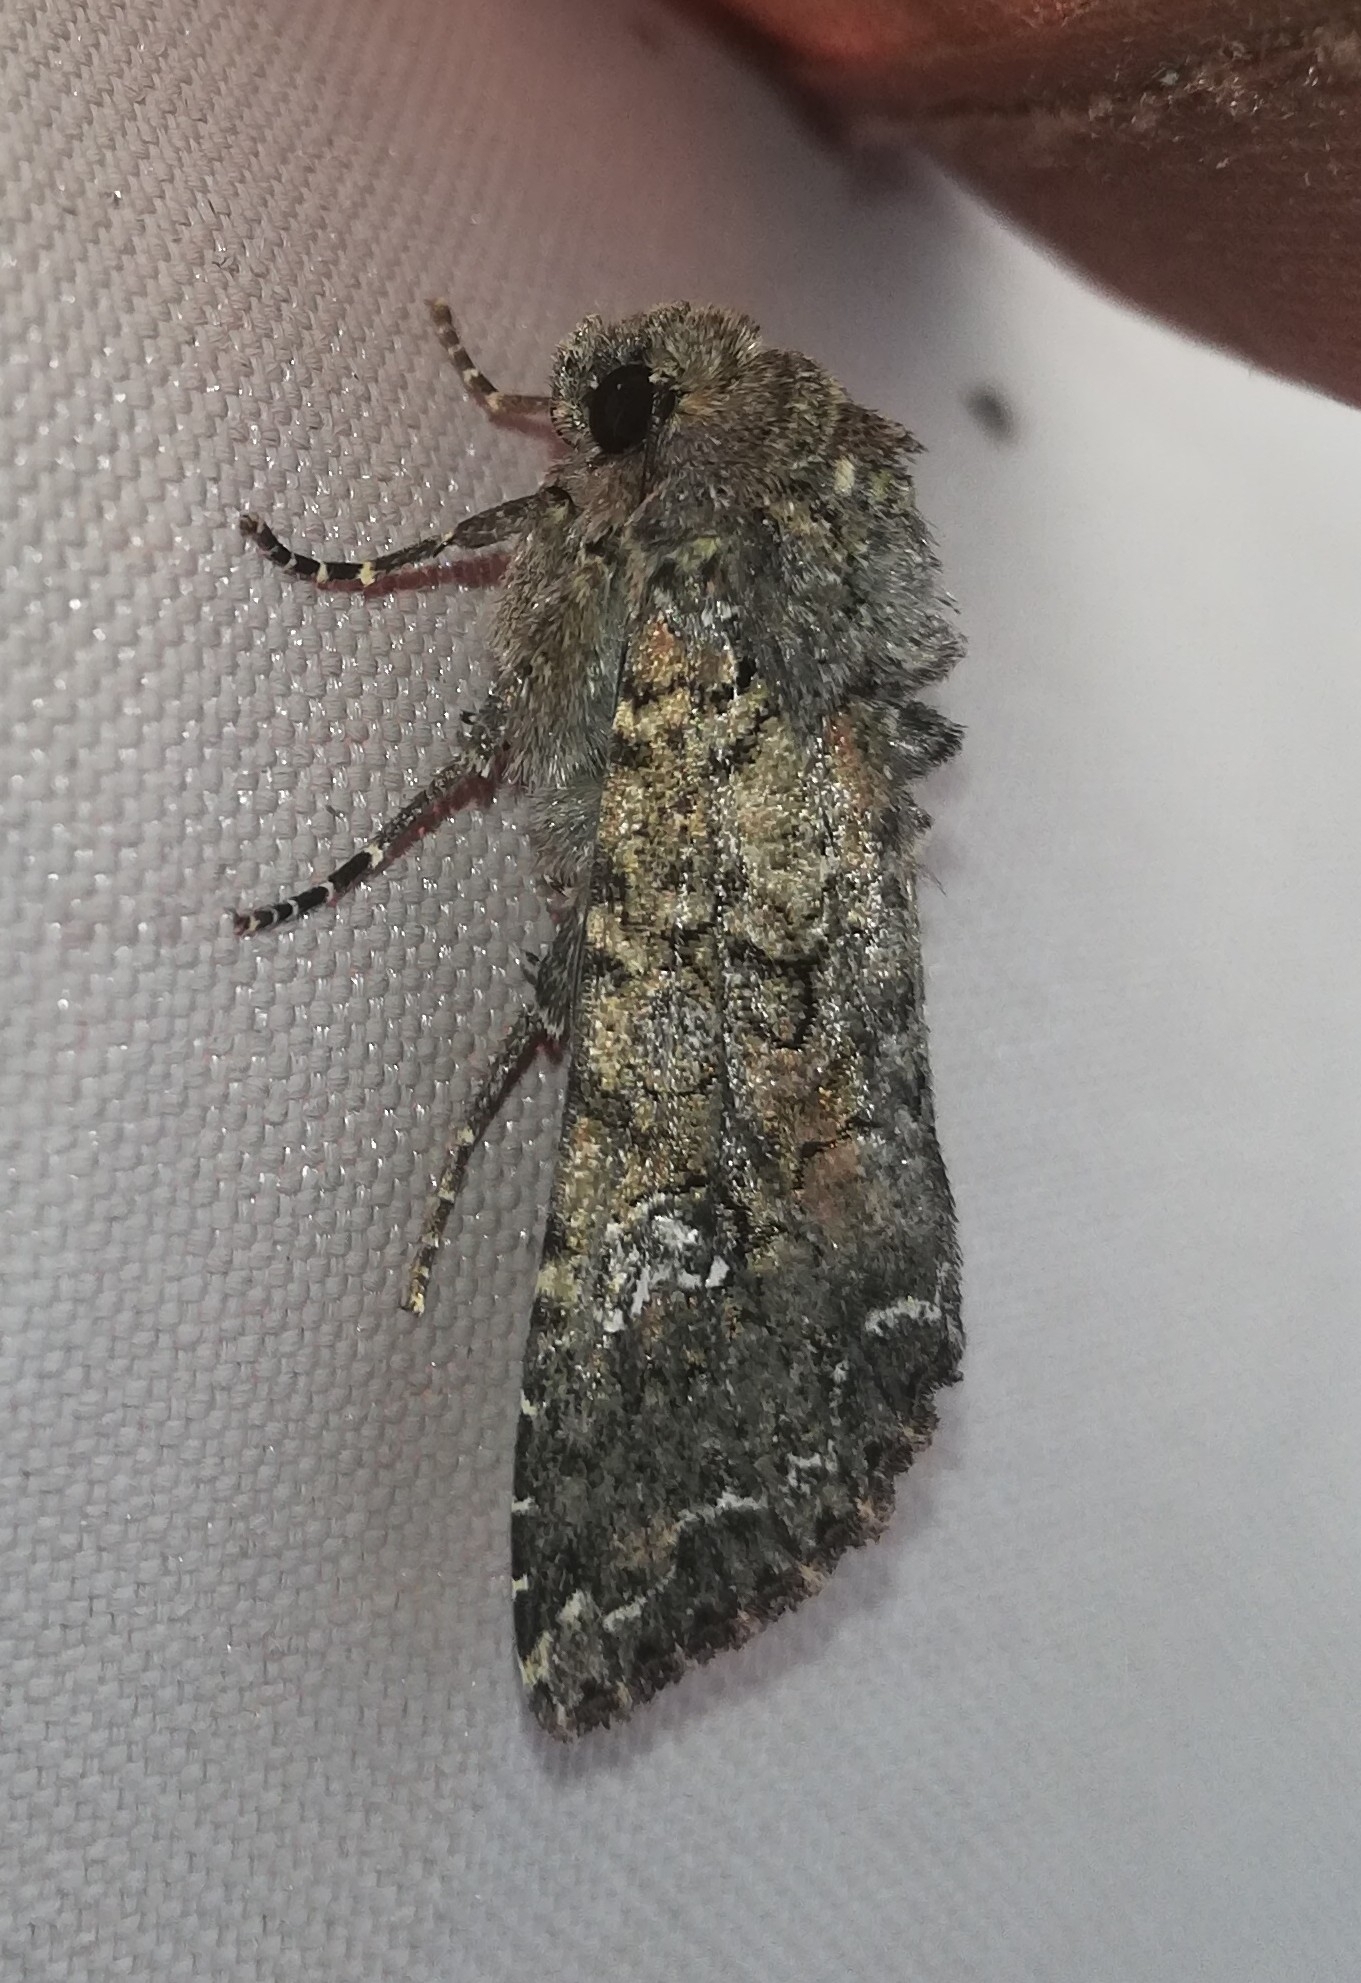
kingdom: Animalia
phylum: Arthropoda
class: Insecta
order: Lepidoptera
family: Noctuidae
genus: Mamestra
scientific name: Mamestra brassicae
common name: Cabbage moth
